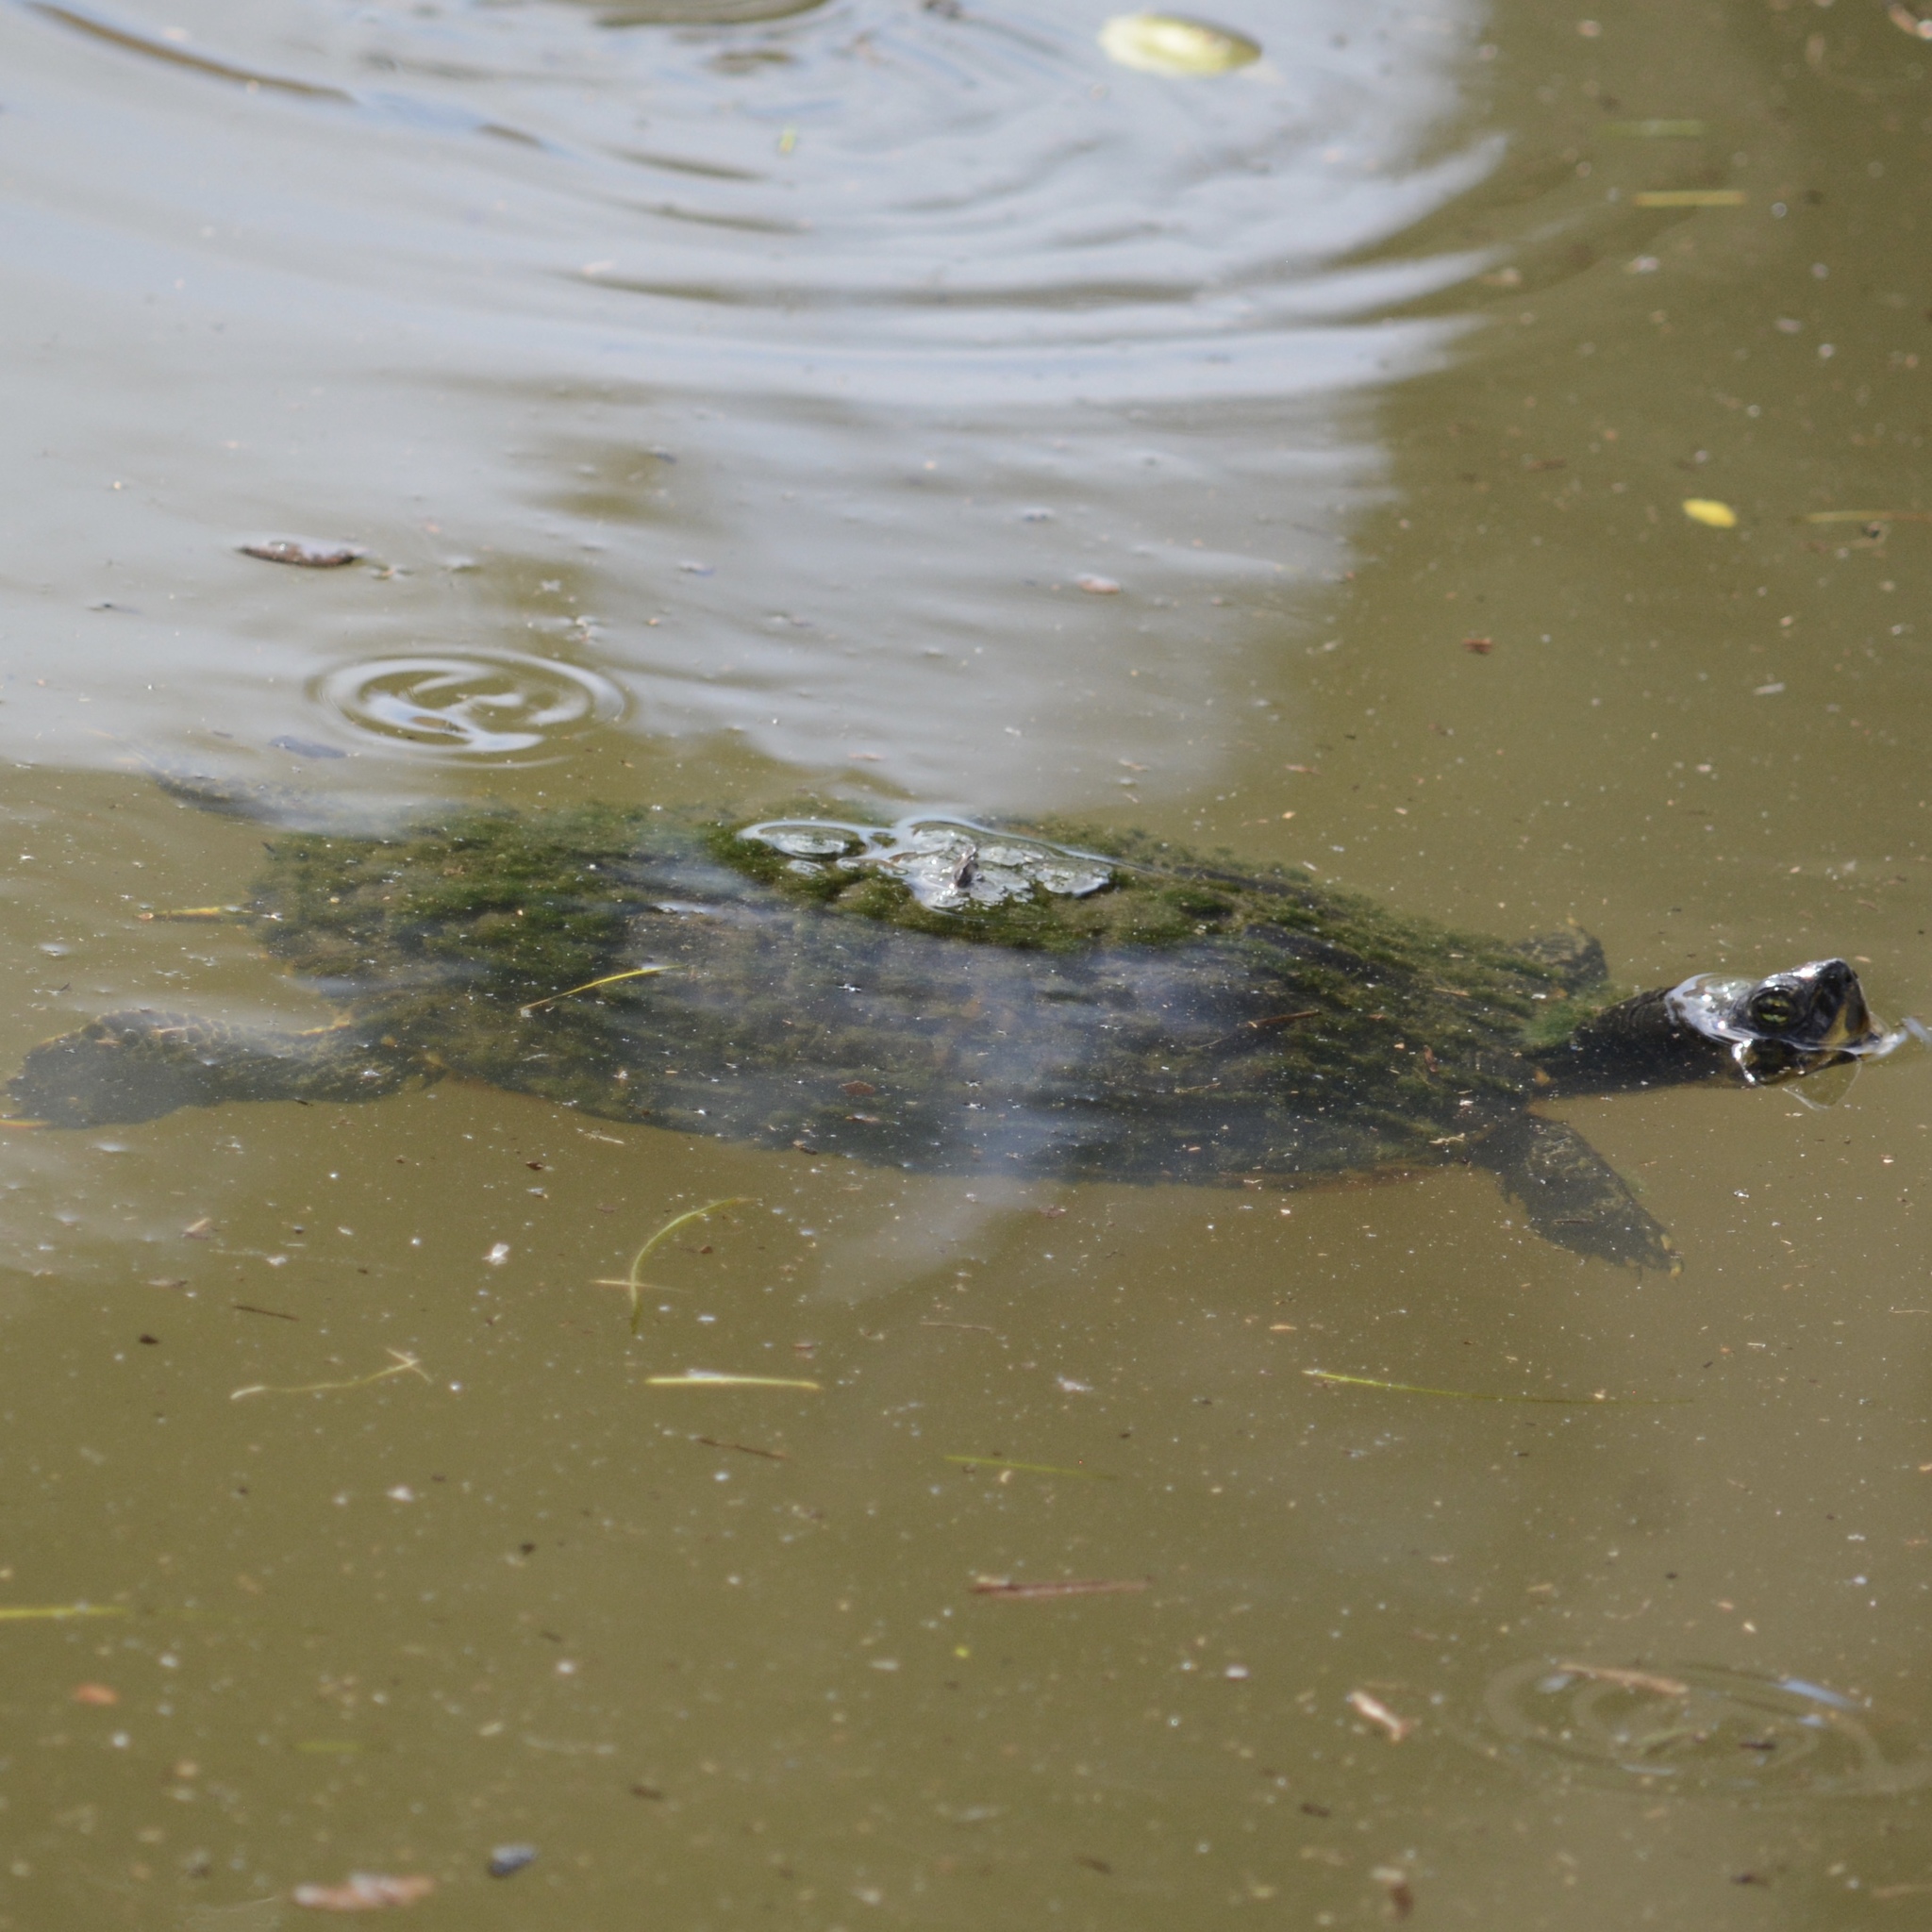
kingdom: Animalia
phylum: Chordata
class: Testudines
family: Emydidae
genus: Trachemys
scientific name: Trachemys scripta
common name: Slider
